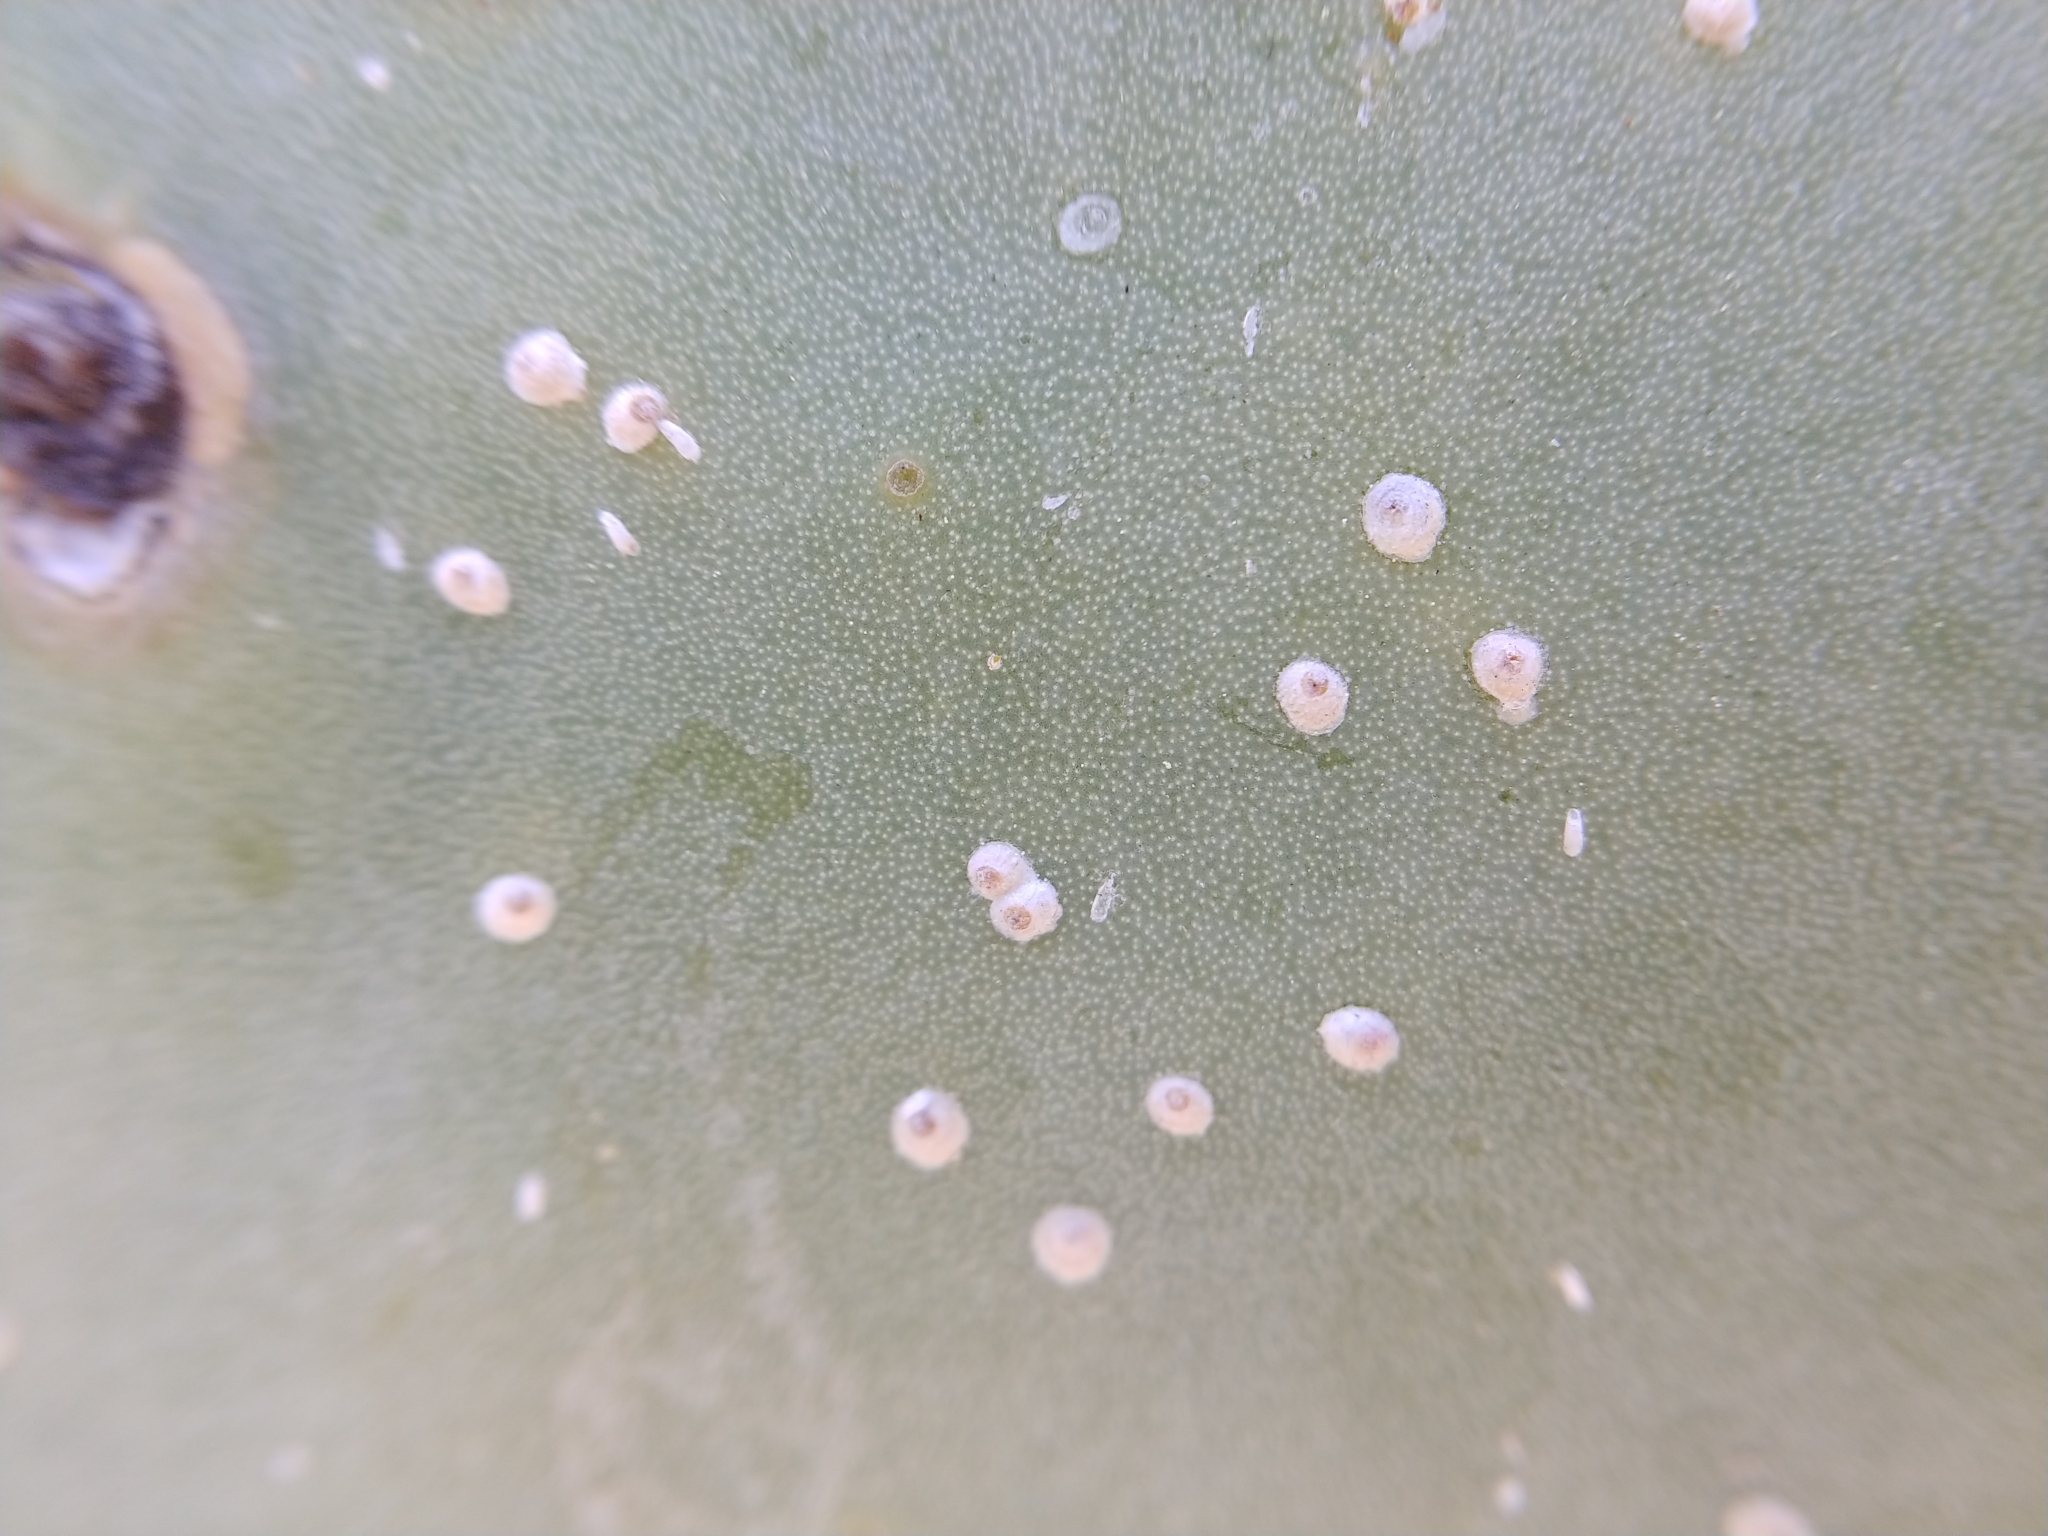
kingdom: Animalia
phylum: Arthropoda
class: Insecta
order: Hemiptera
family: Diaspididae
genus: Diaspis
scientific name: Diaspis echinocacti
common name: Cactus scale
